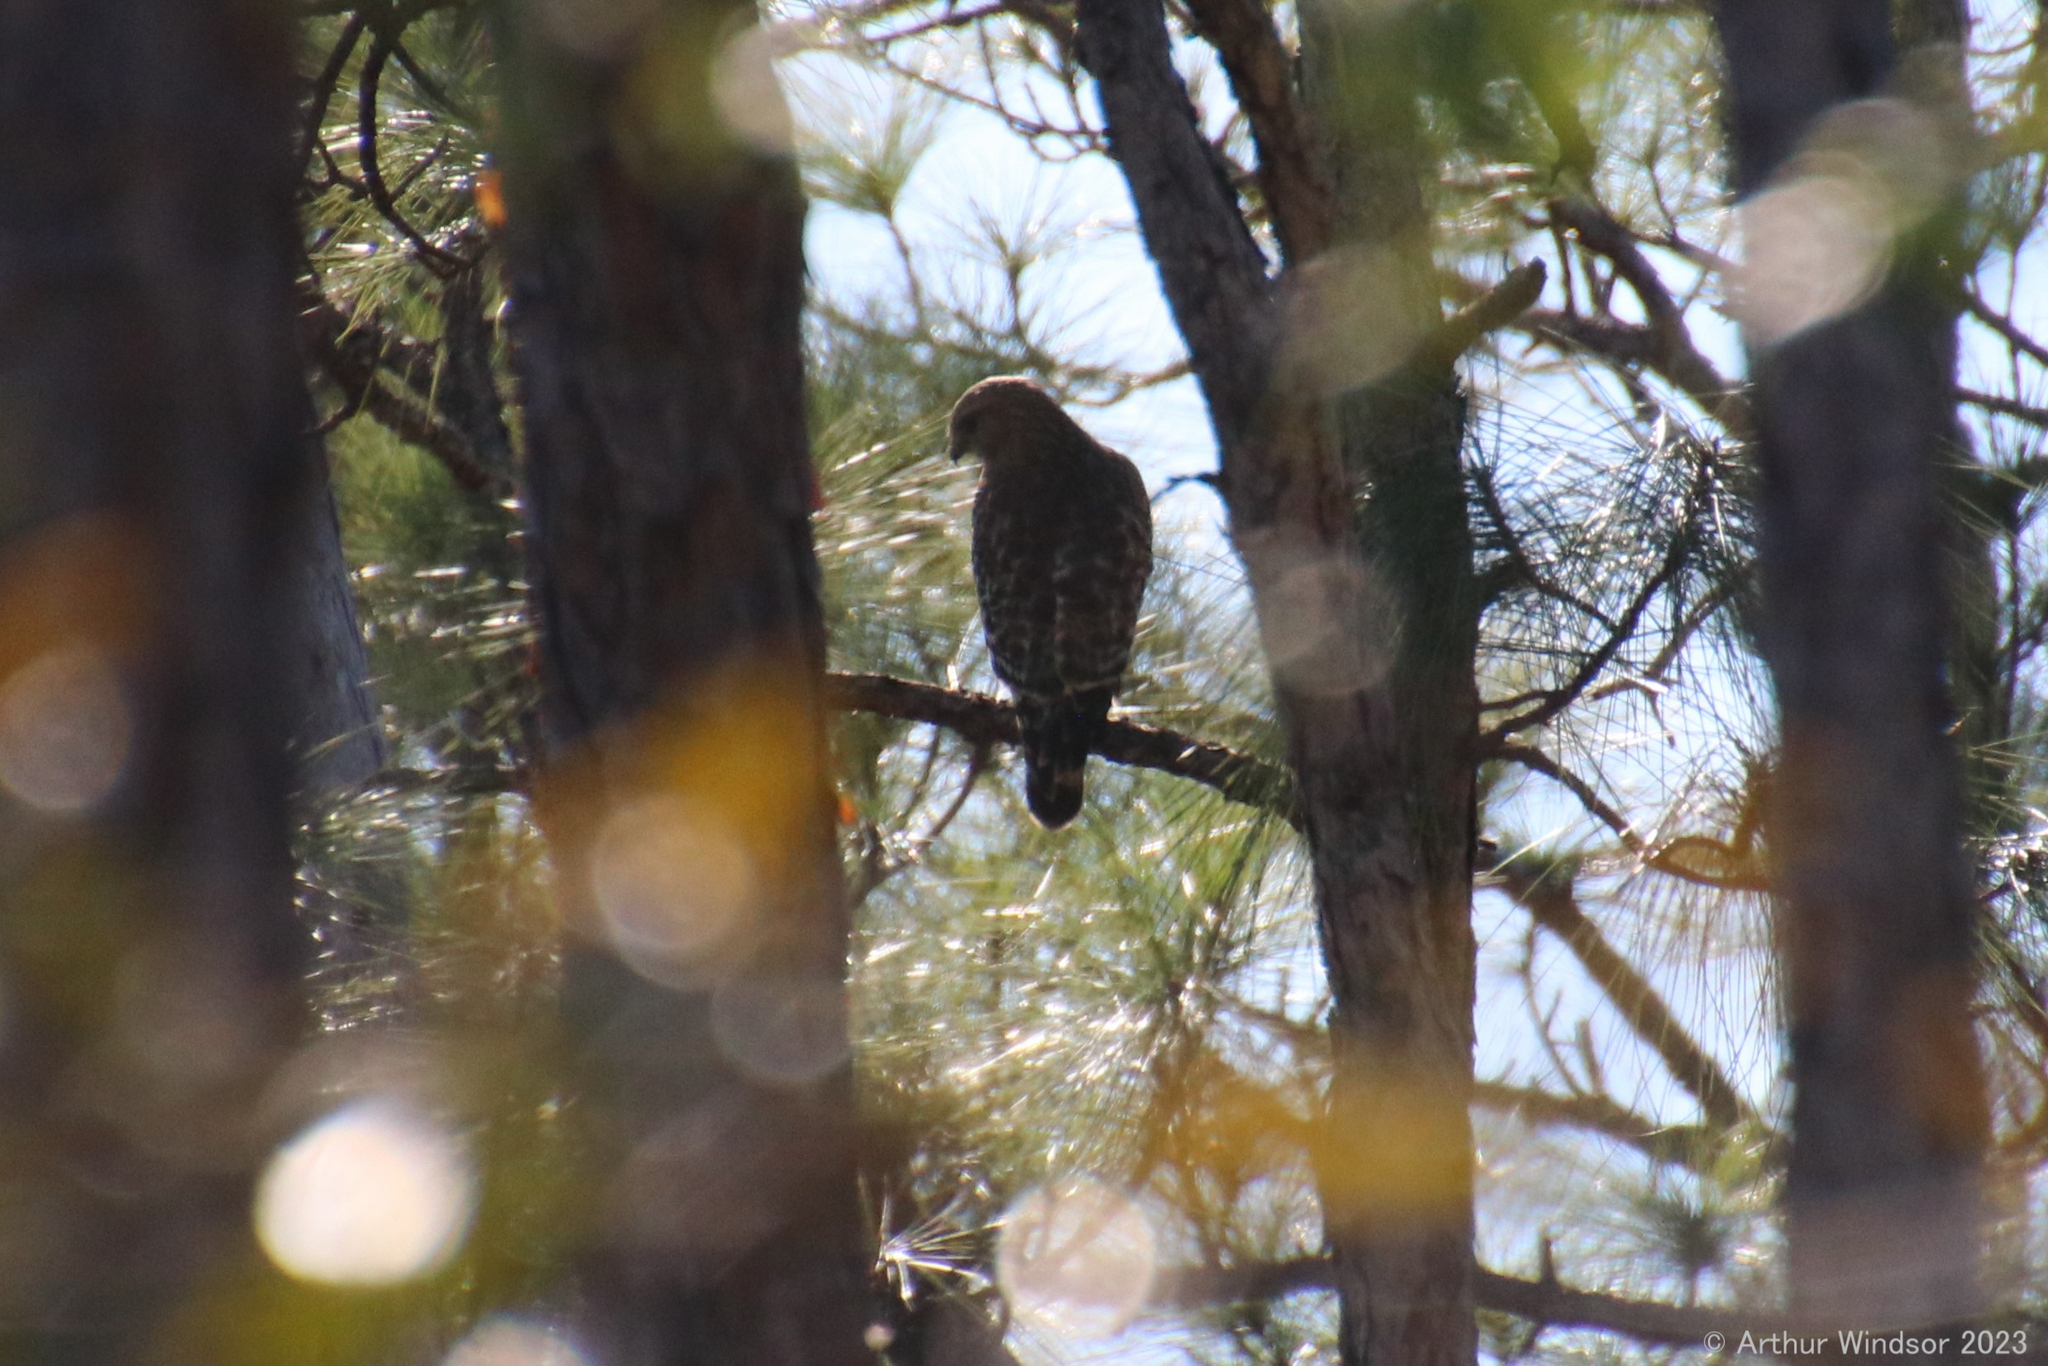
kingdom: Animalia
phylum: Chordata
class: Aves
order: Accipitriformes
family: Accipitridae
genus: Buteo
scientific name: Buteo lineatus
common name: Red-shouldered hawk
